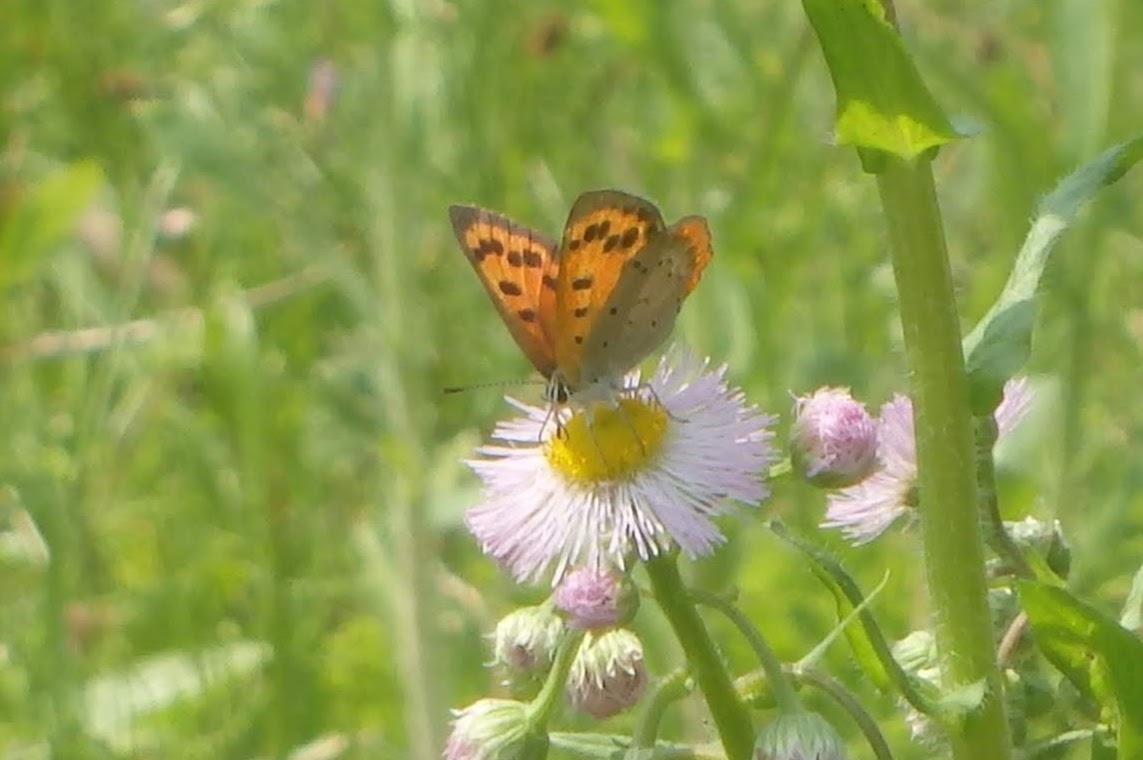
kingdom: Animalia
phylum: Arthropoda
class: Insecta
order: Lepidoptera
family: Lycaenidae
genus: Lycaena
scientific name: Lycaena phlaeas
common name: Small copper
